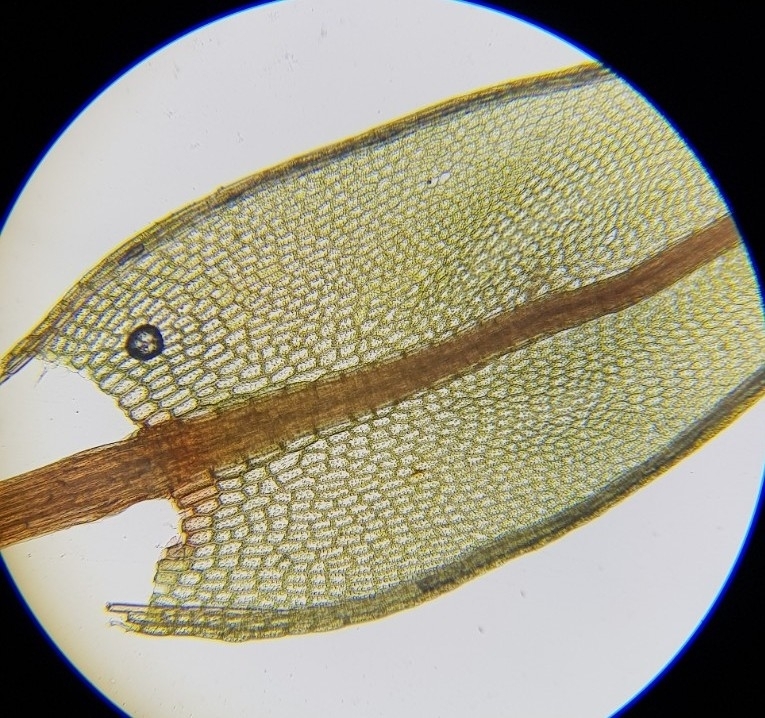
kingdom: Plantae
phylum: Bryophyta
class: Bryopsida
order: Bryales
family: Bryaceae
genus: Ptychostomum
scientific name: Ptychostomum pseudotriquetrum
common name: Long-leaved thread moss
